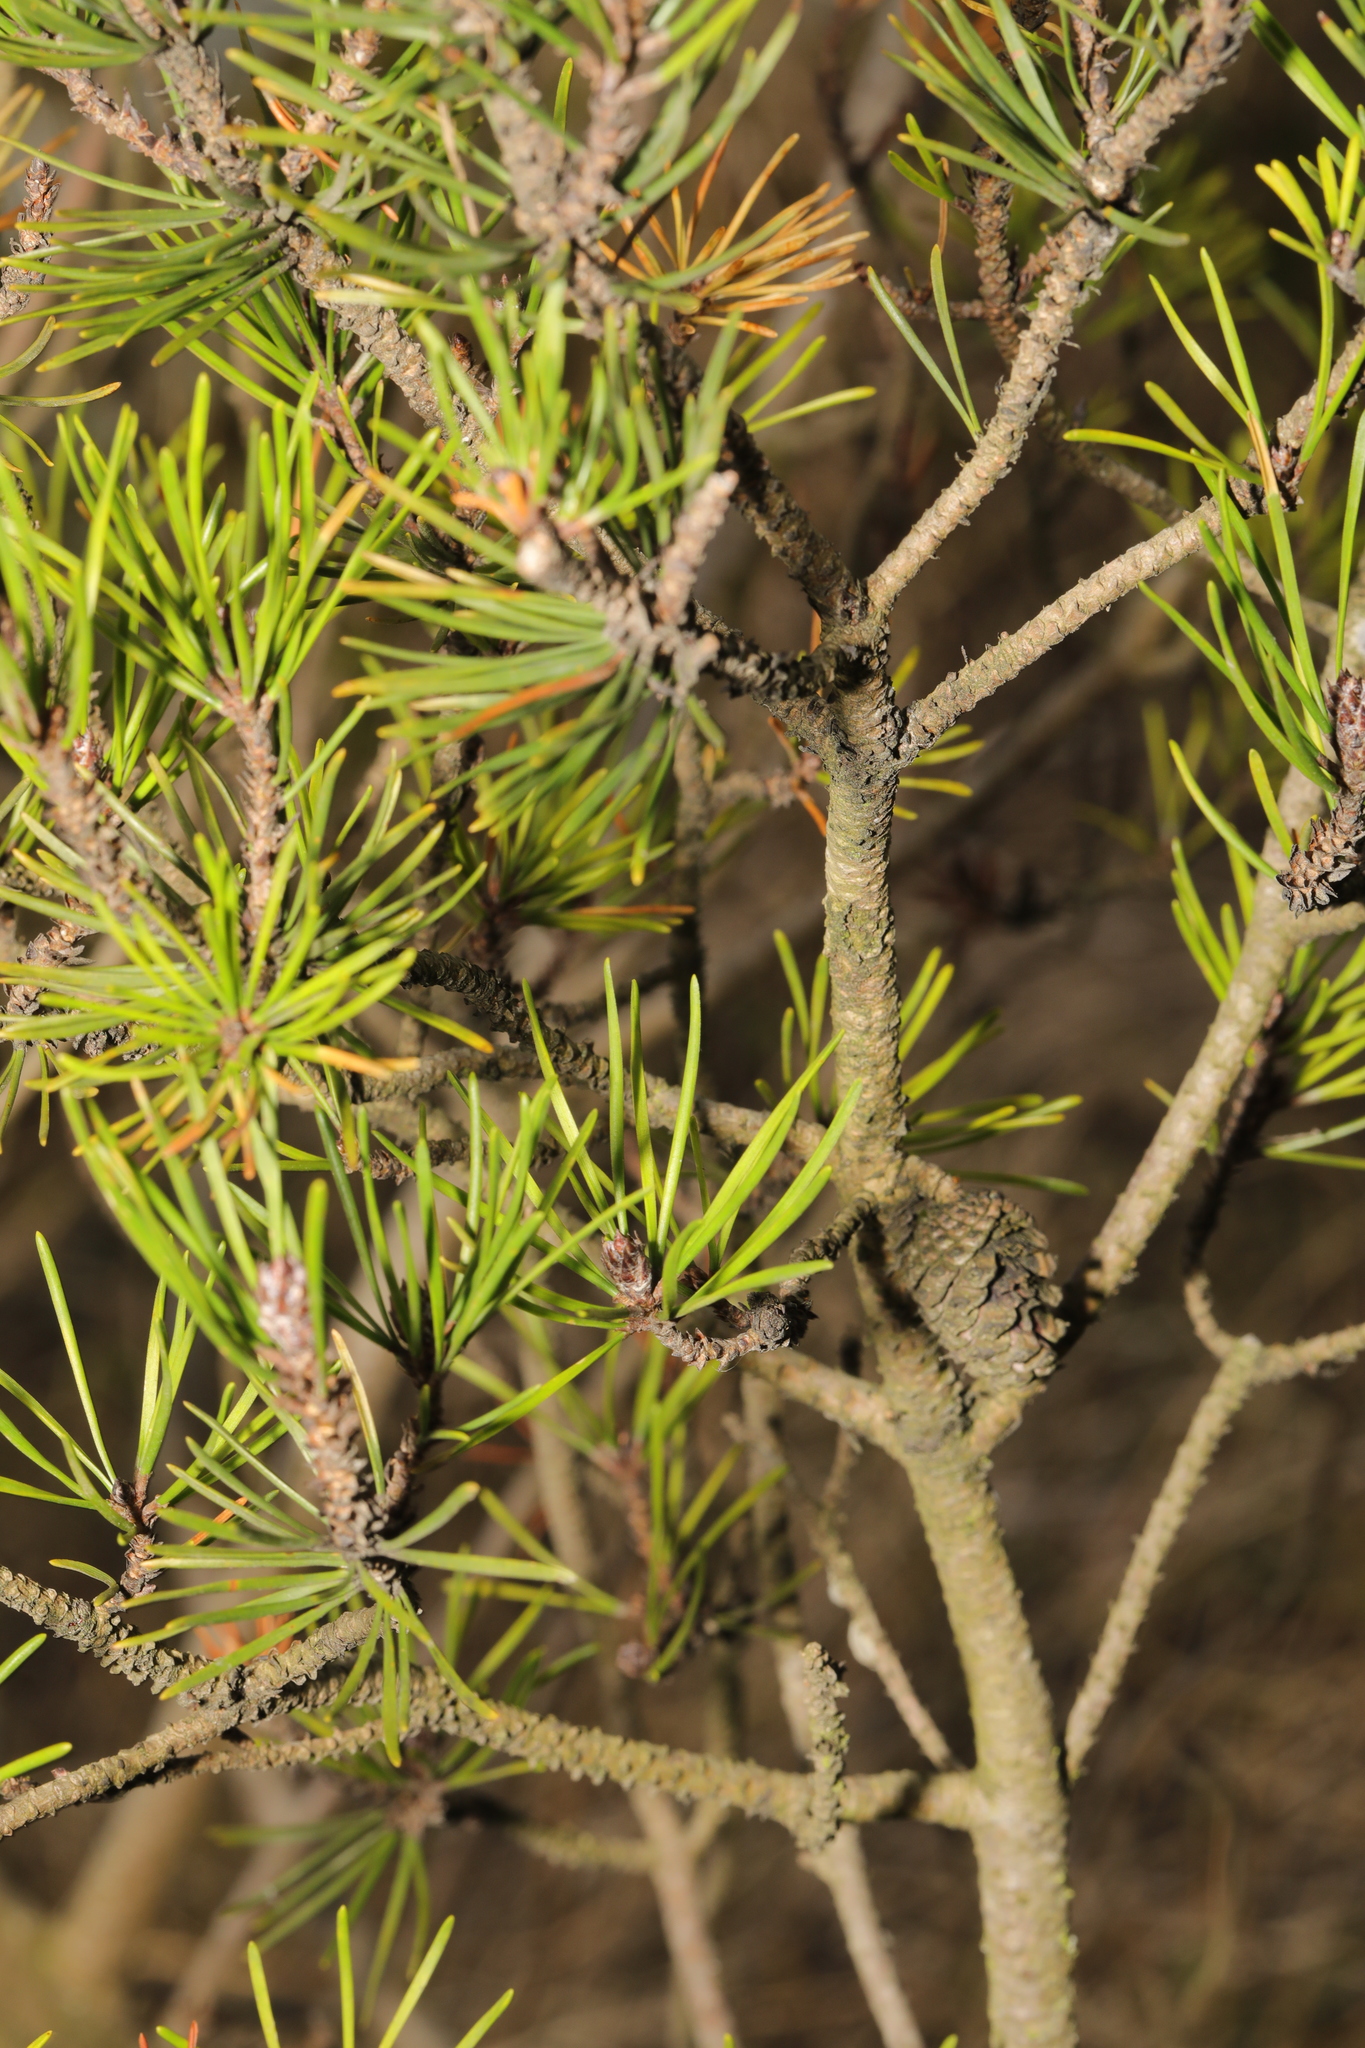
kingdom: Plantae
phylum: Tracheophyta
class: Pinopsida
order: Pinales
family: Pinaceae
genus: Pinus
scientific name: Pinus contorta
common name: Lodgepole pine
